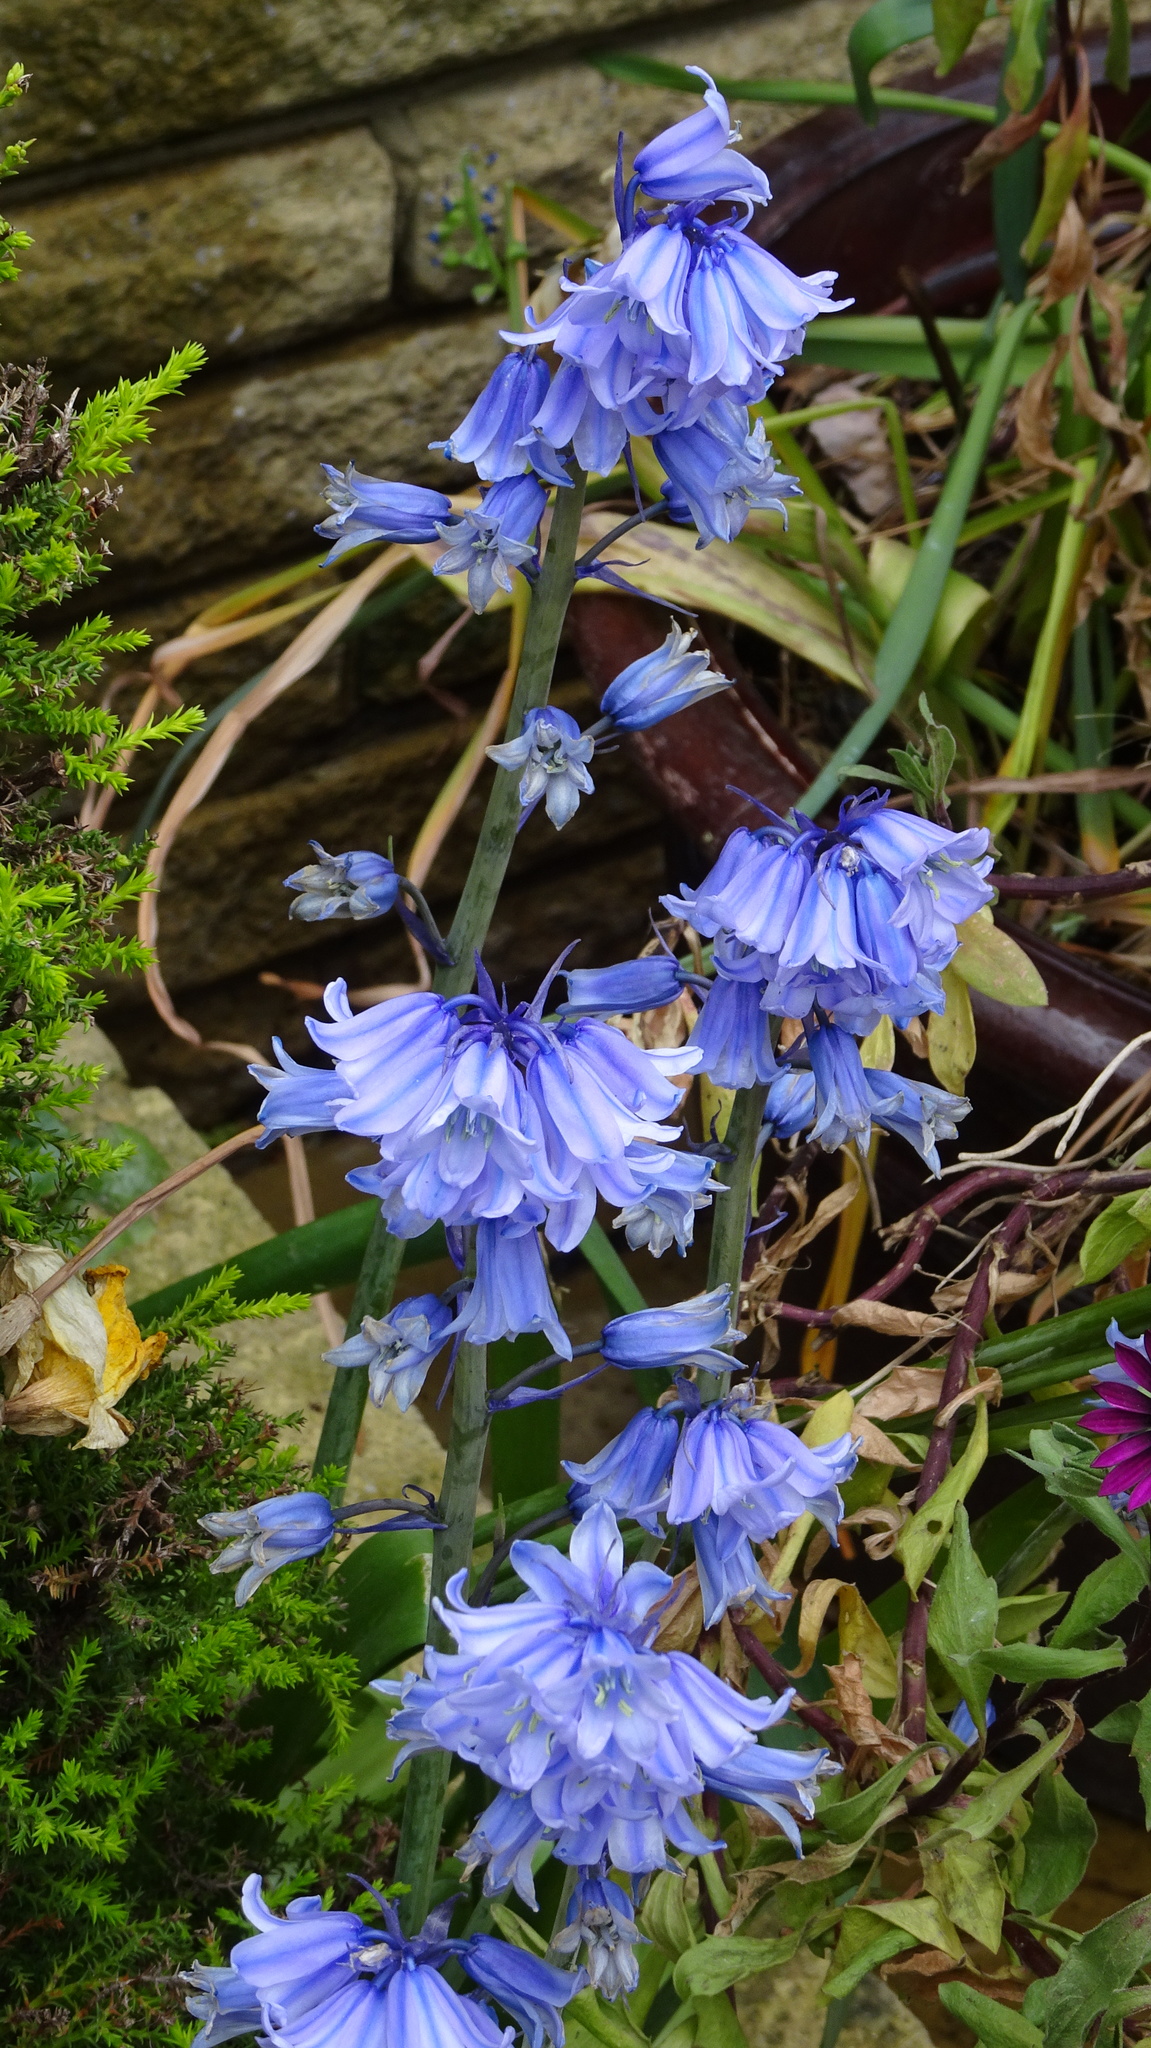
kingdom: Plantae
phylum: Tracheophyta
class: Liliopsida
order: Asparagales
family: Asparagaceae
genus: Hyacinthoides
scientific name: Hyacinthoides massartiana
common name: Hyacinthoides
